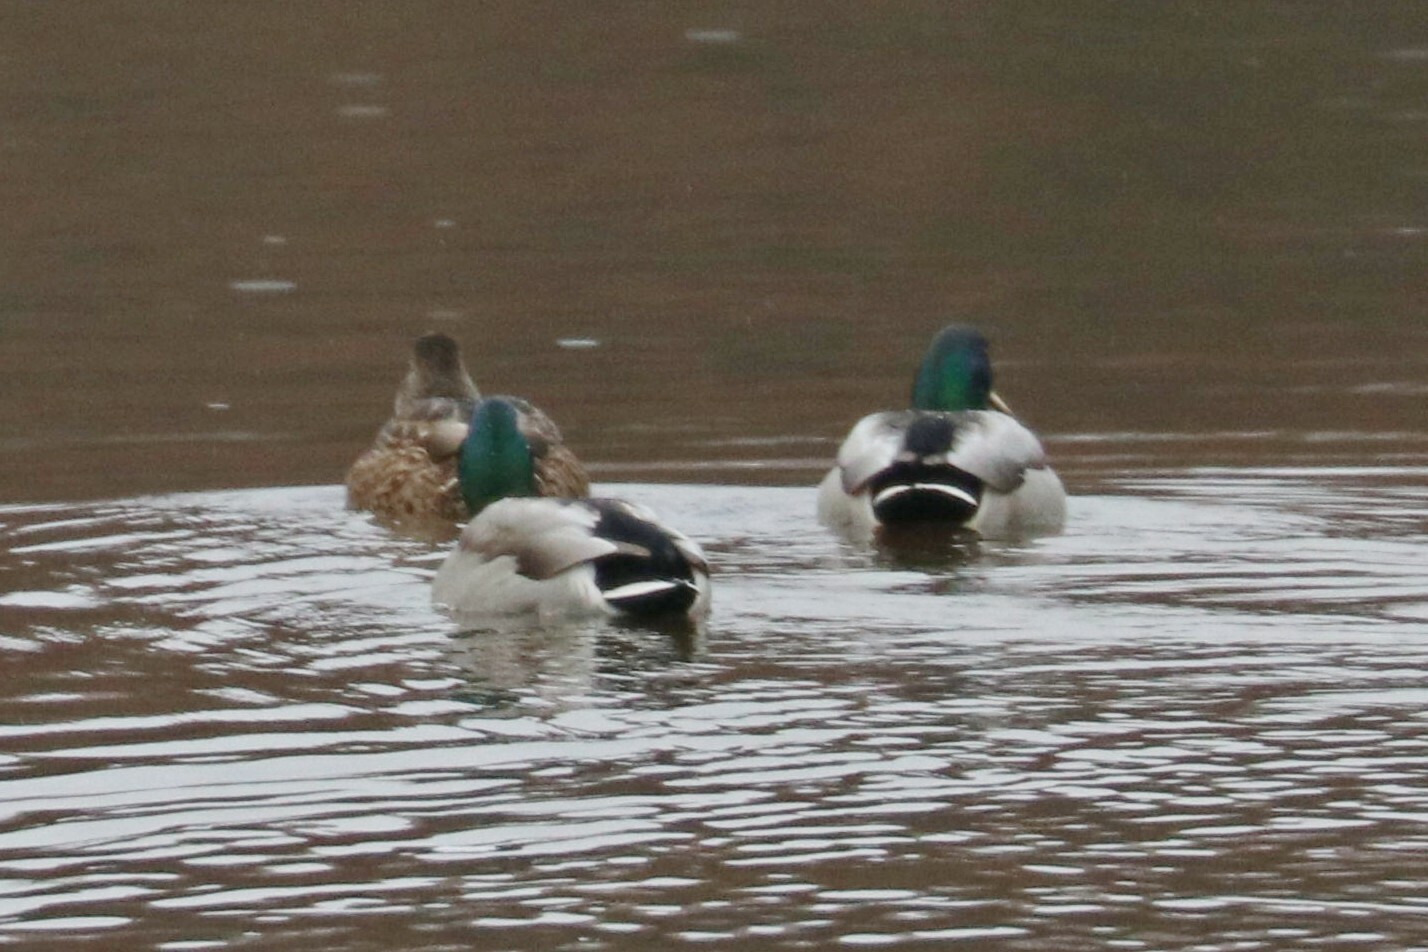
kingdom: Animalia
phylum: Chordata
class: Aves
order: Anseriformes
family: Anatidae
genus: Anas
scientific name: Anas platyrhynchos
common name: Mallard
